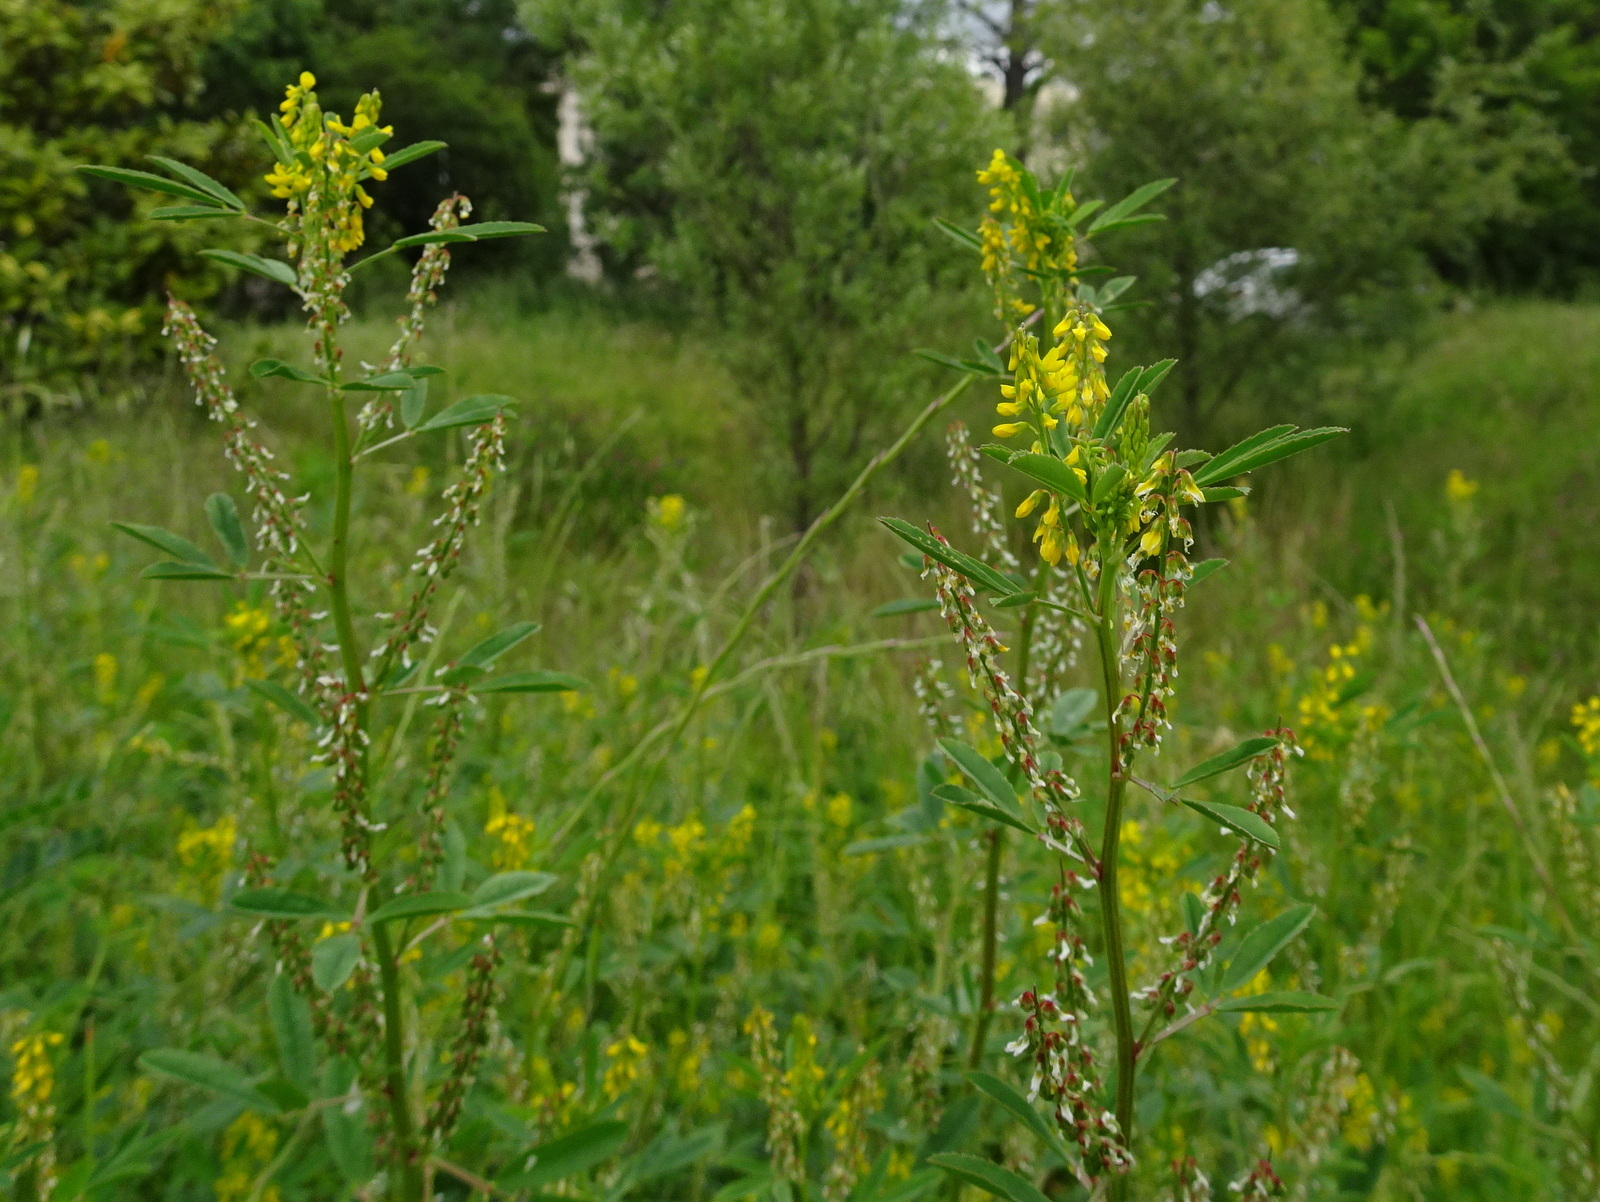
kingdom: Plantae
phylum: Tracheophyta
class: Magnoliopsida
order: Fabales
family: Fabaceae
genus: Melilotus
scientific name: Melilotus sulcatus
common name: Furrowed melilot
